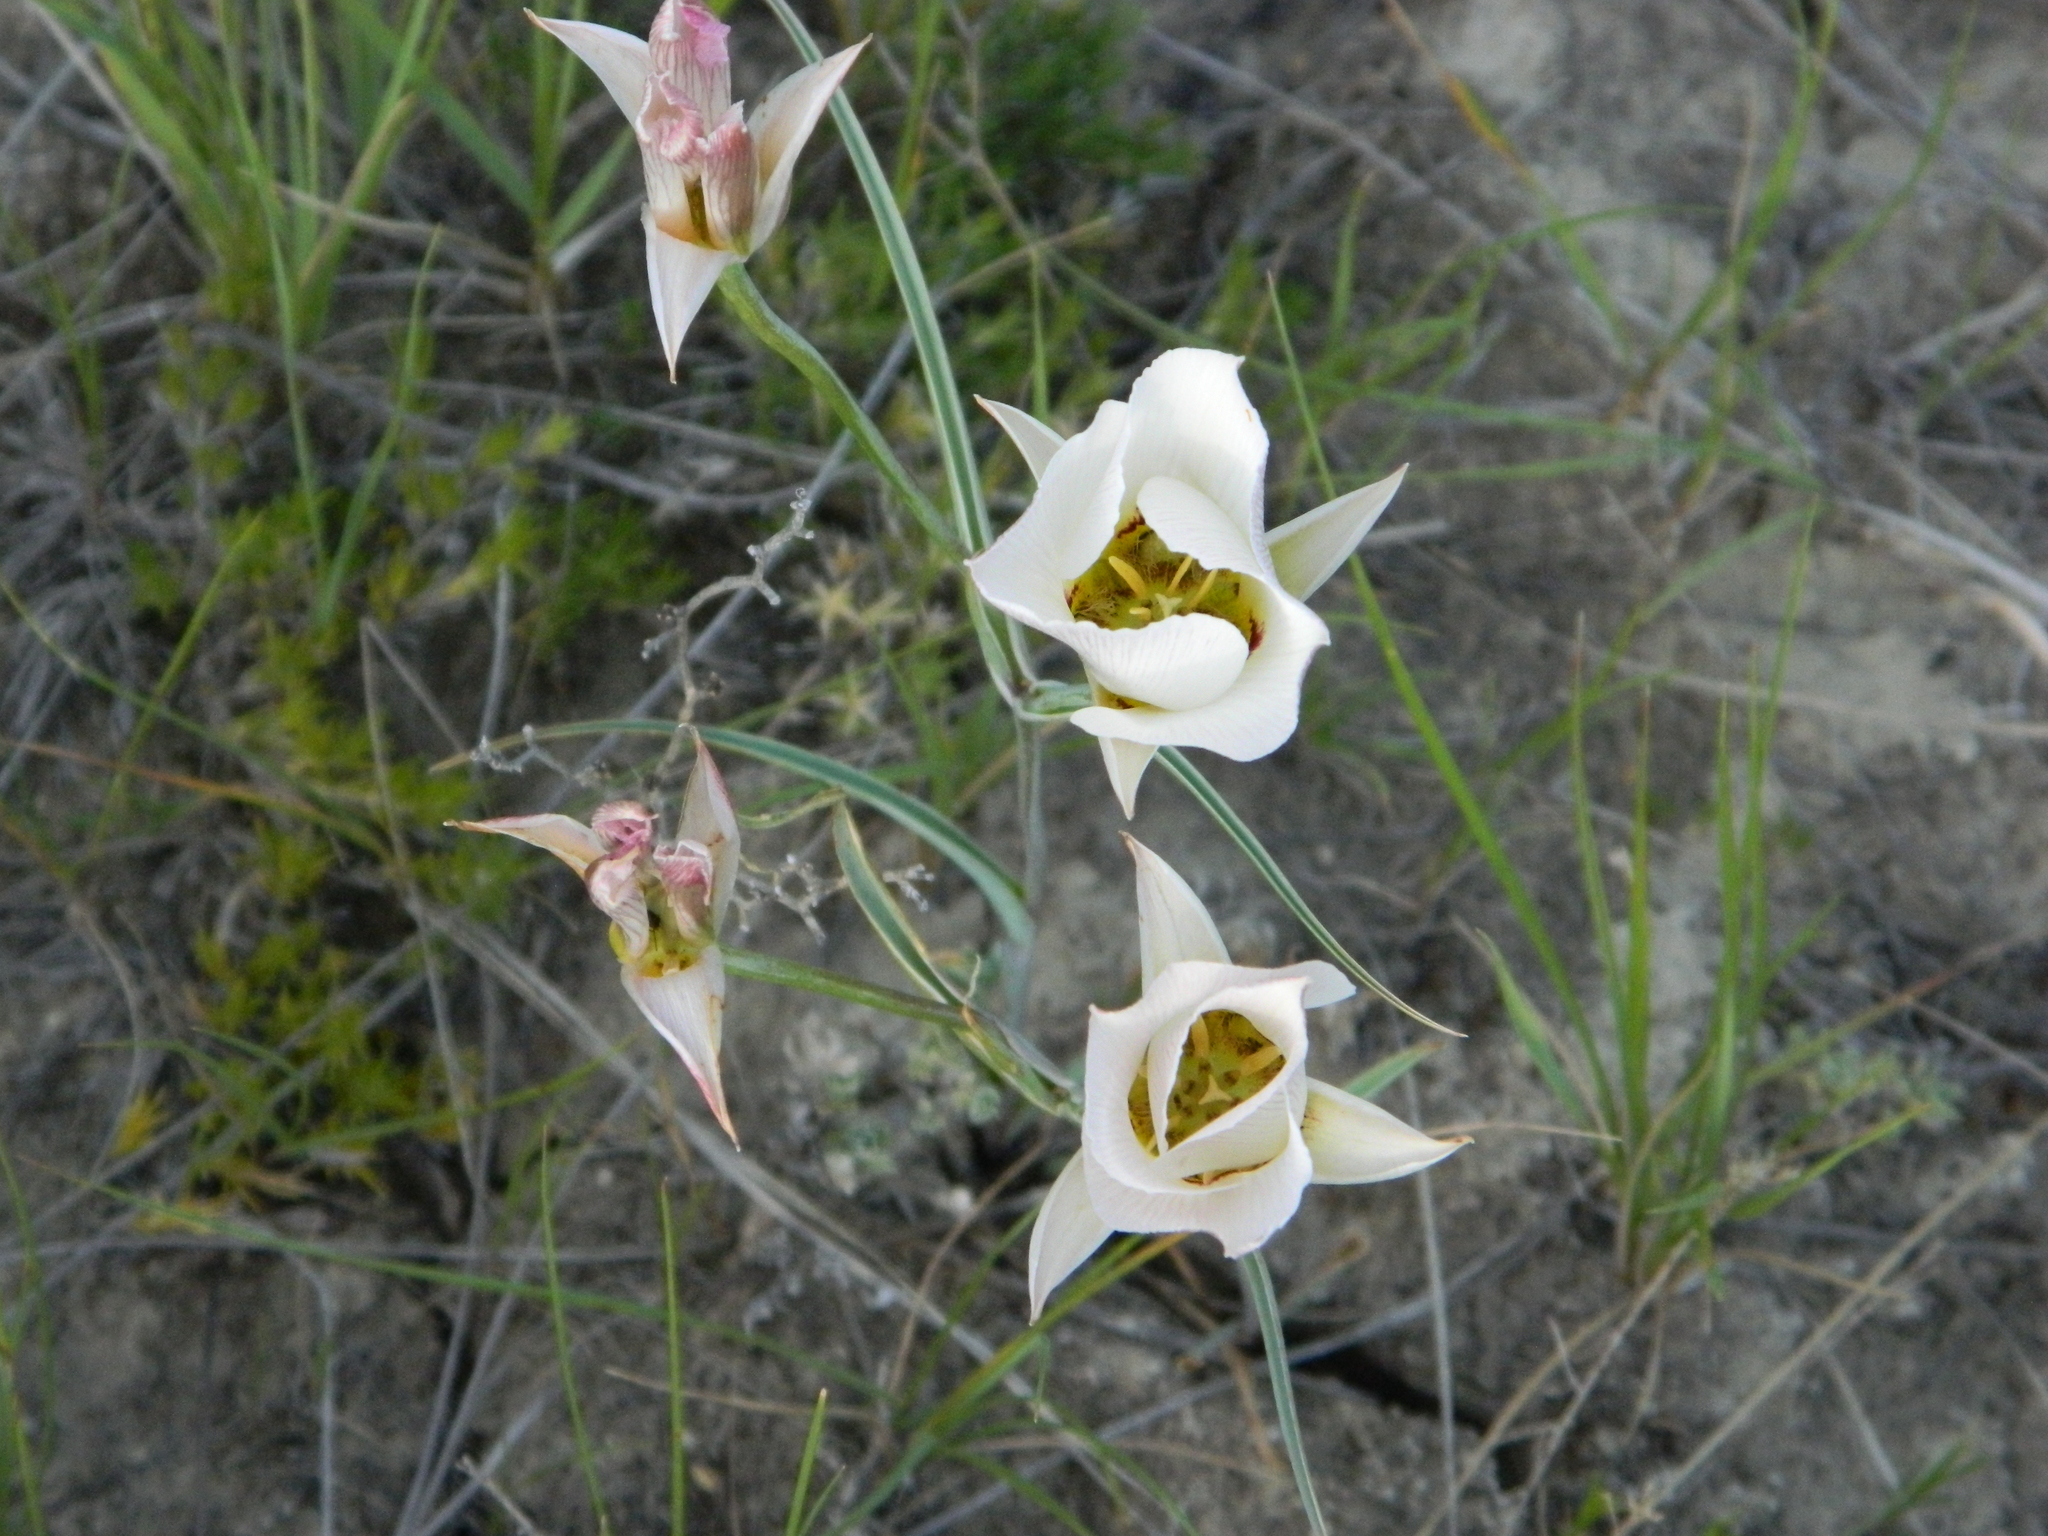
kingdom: Plantae
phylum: Tracheophyta
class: Liliopsida
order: Liliales
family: Liliaceae
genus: Calochortus
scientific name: Calochortus nuttallii
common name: Sego-lily
